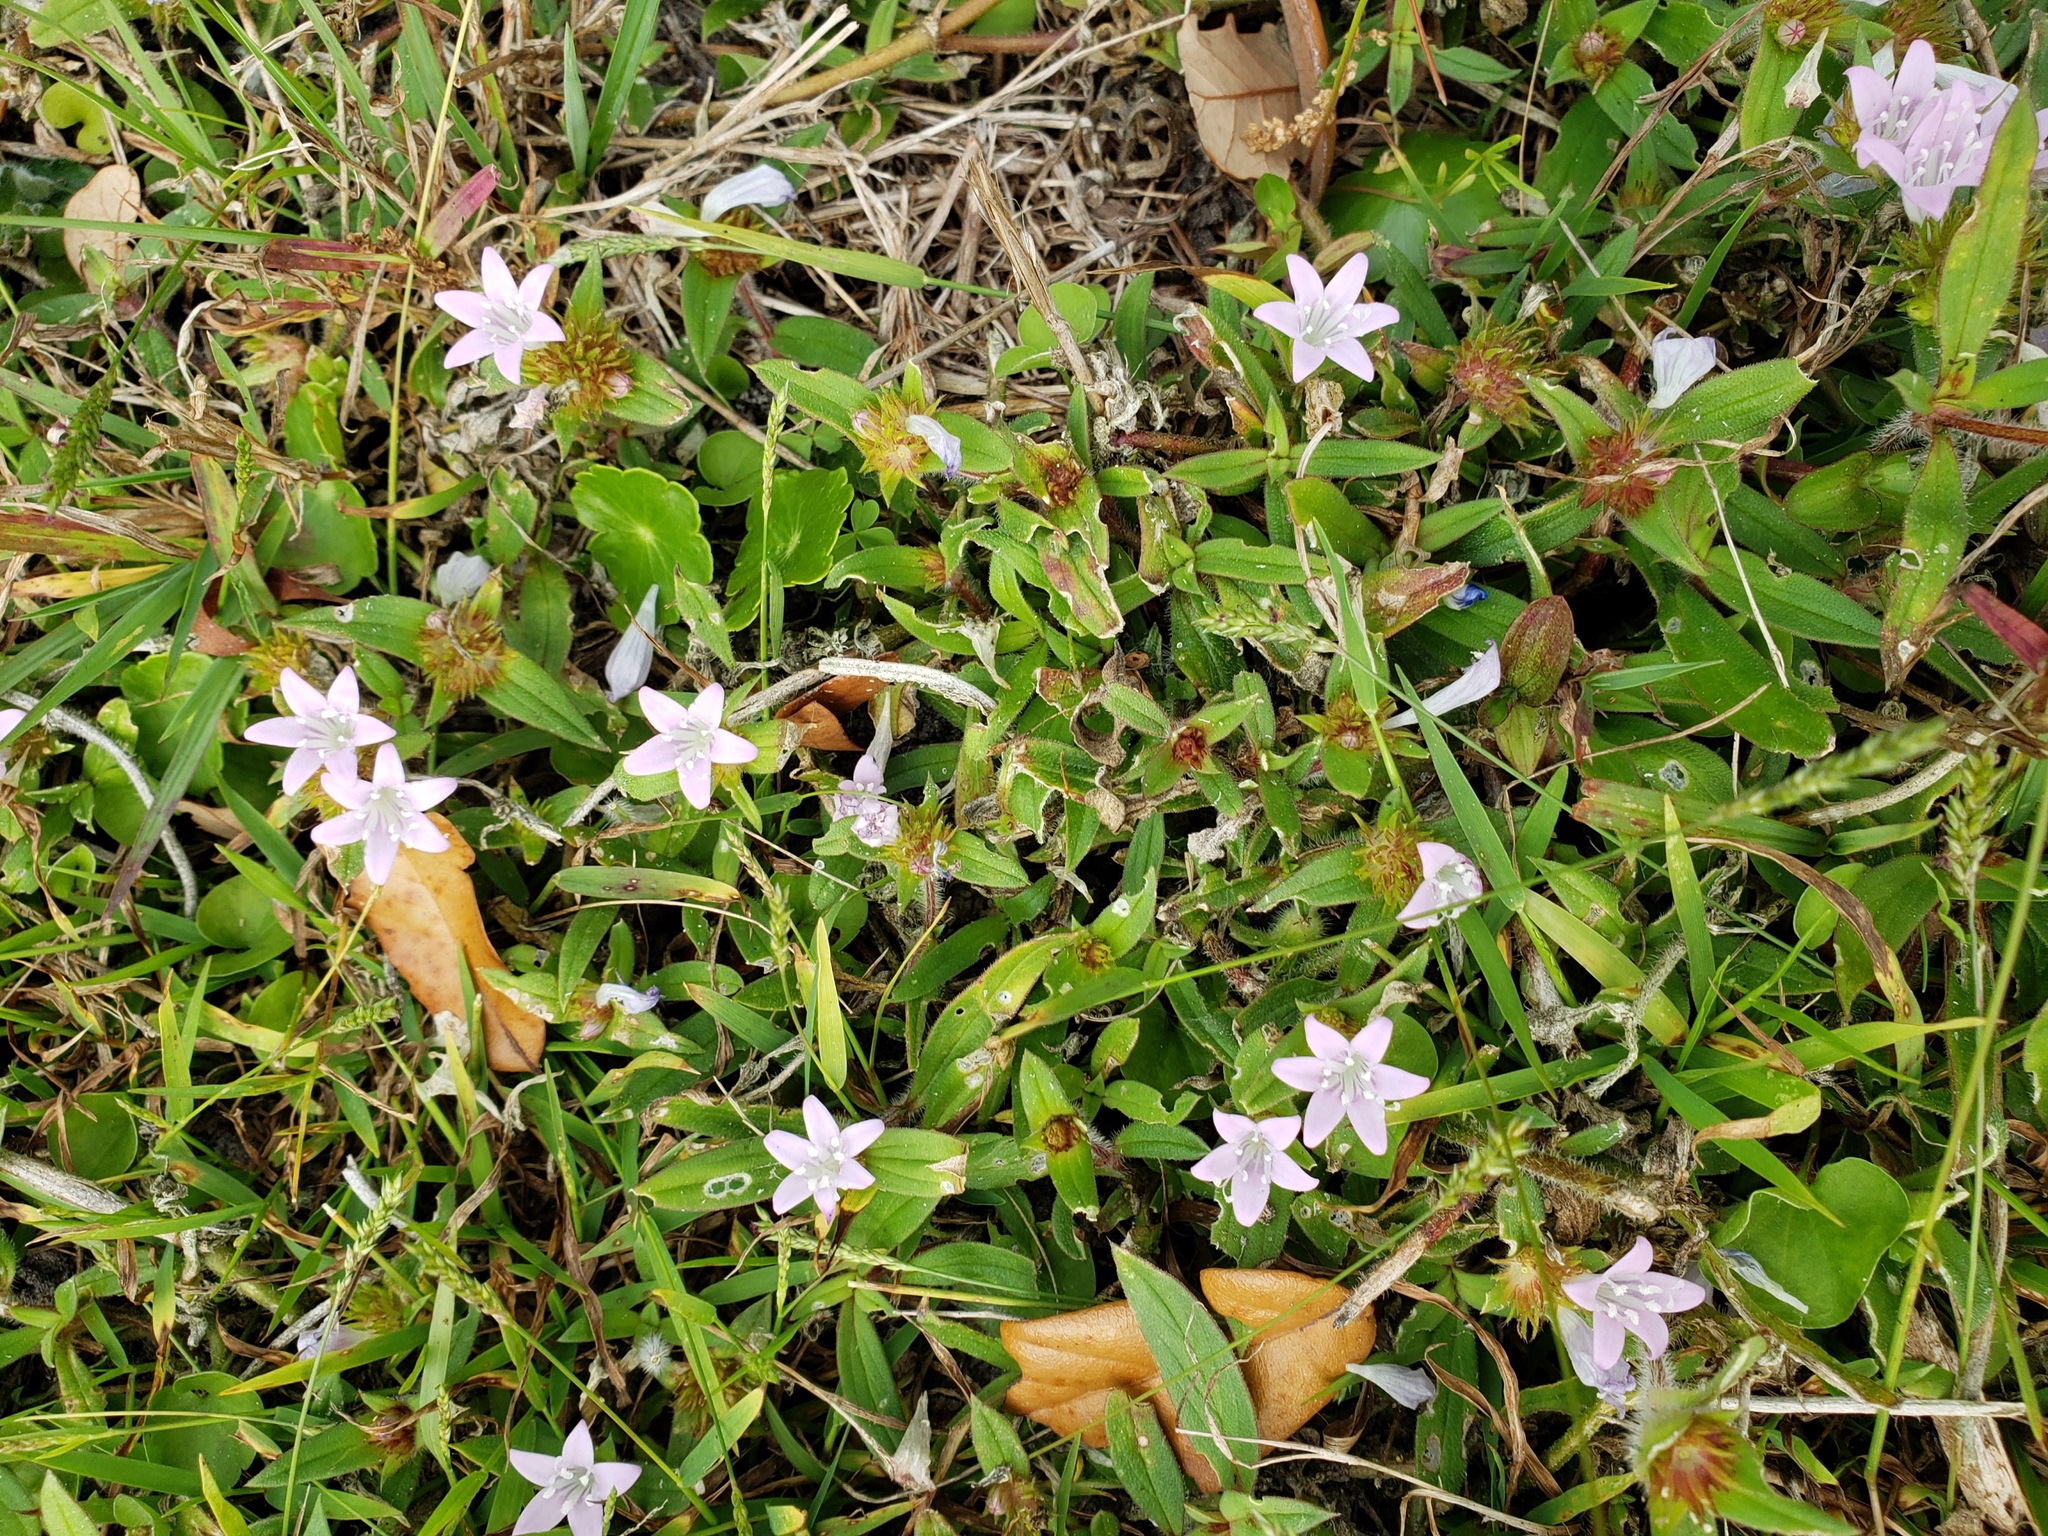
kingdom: Plantae
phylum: Tracheophyta
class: Magnoliopsida
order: Gentianales
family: Rubiaceae
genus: Richardia
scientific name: Richardia grandiflora
